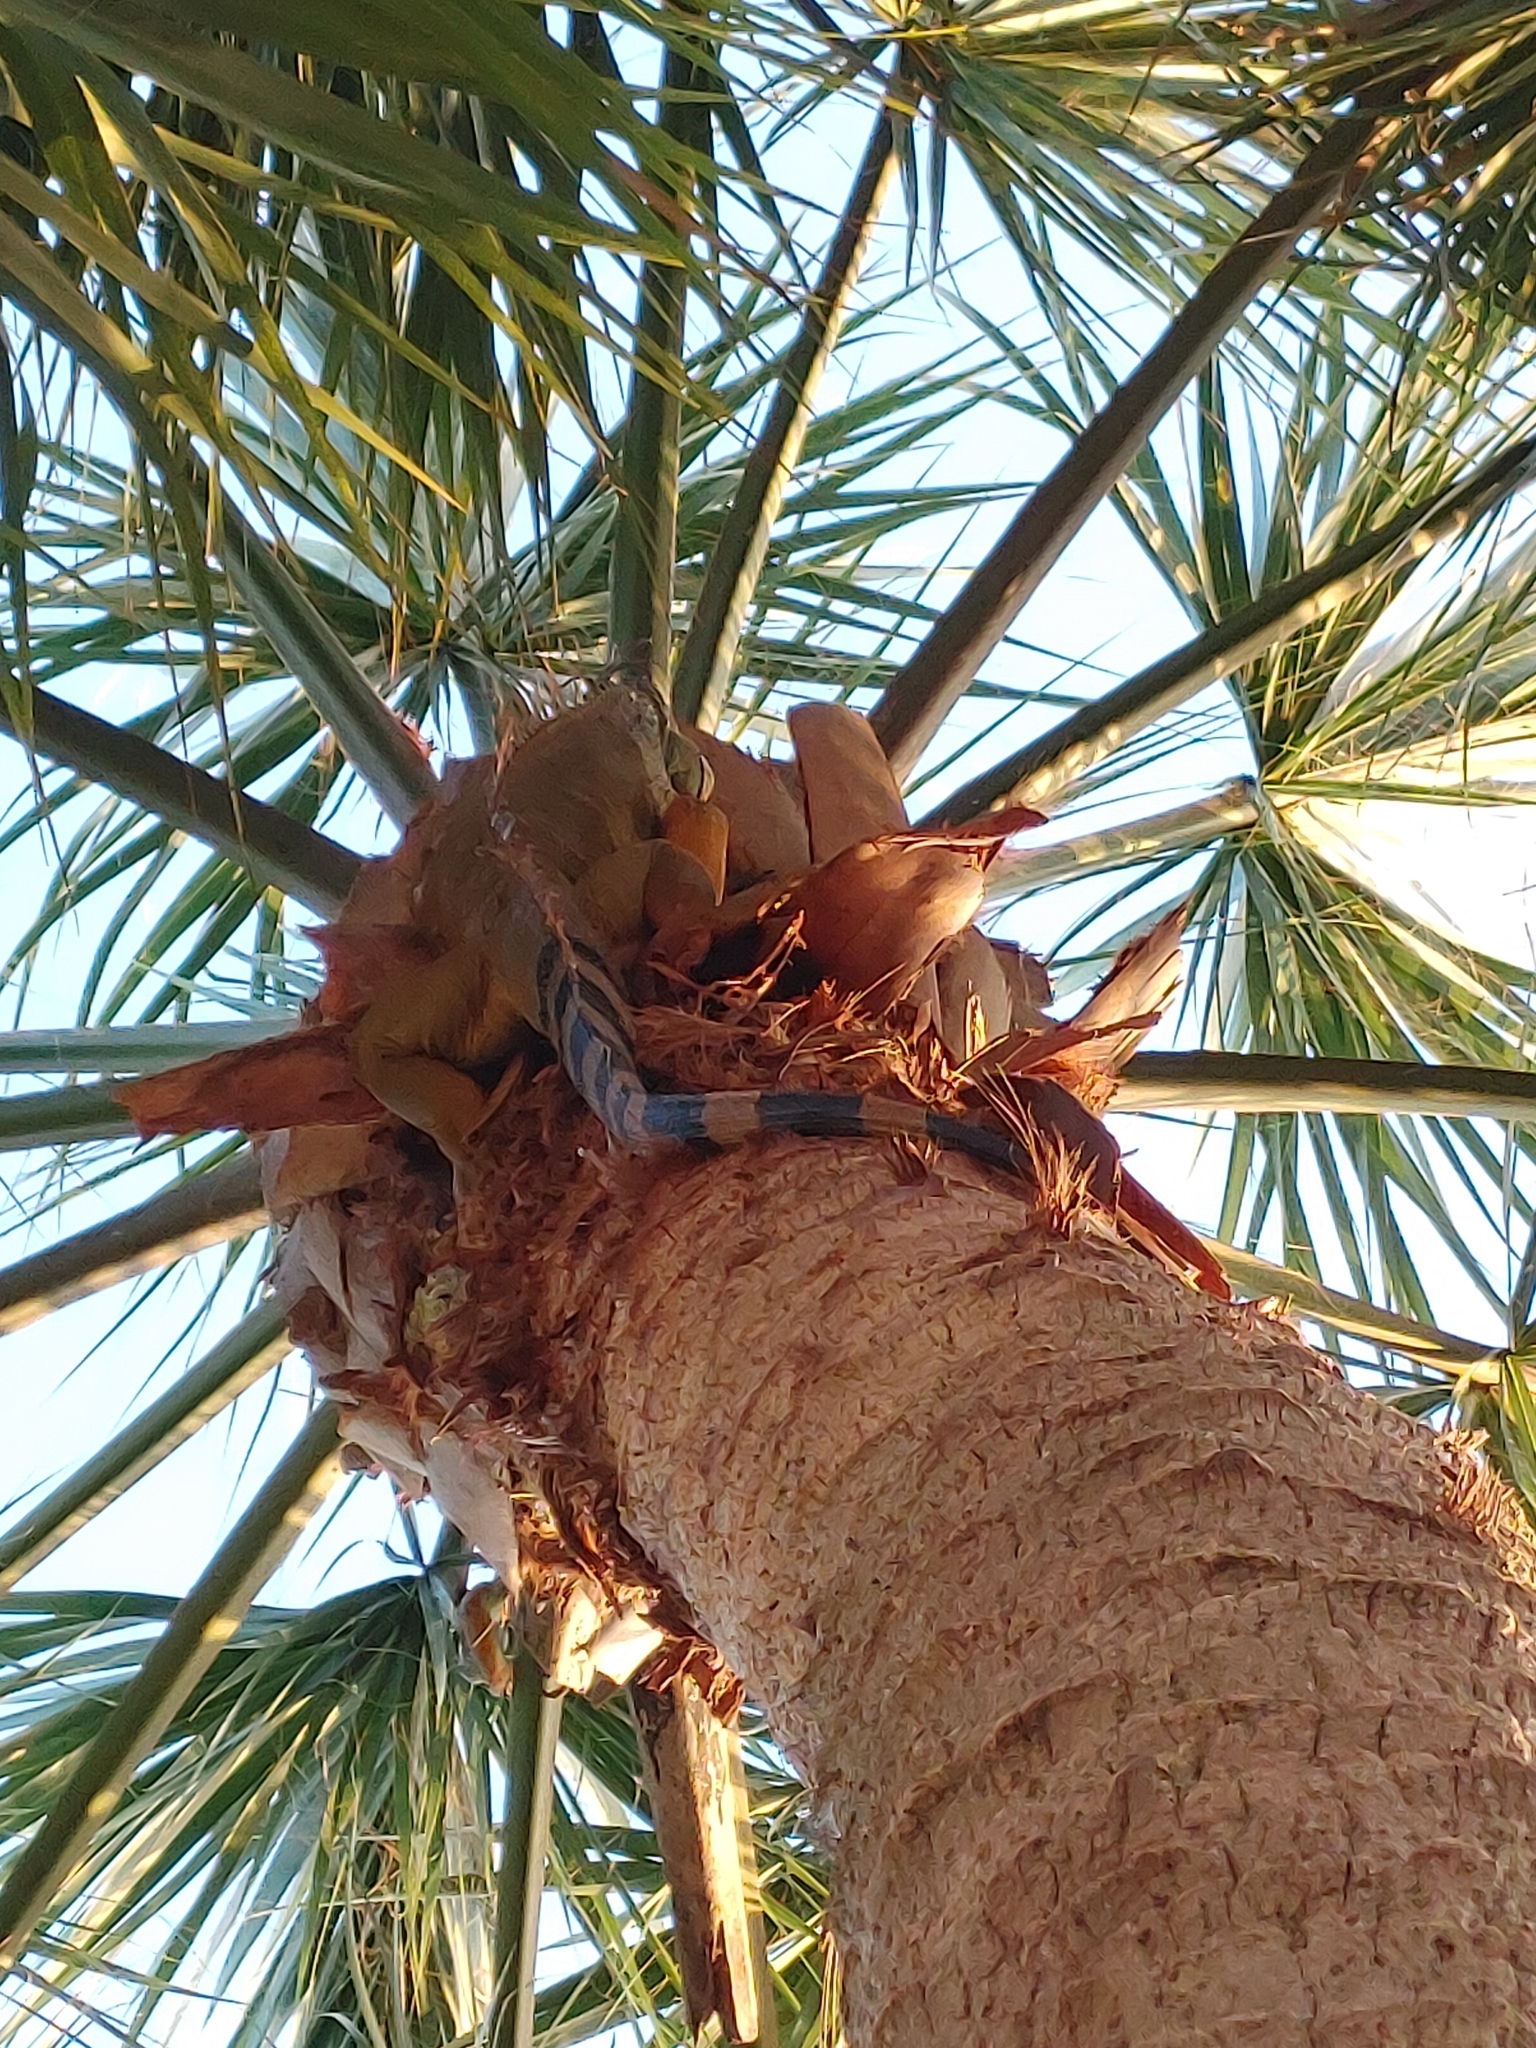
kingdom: Animalia
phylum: Chordata
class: Squamata
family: Iguanidae
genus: Iguana
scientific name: Iguana iguana
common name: Green iguana
